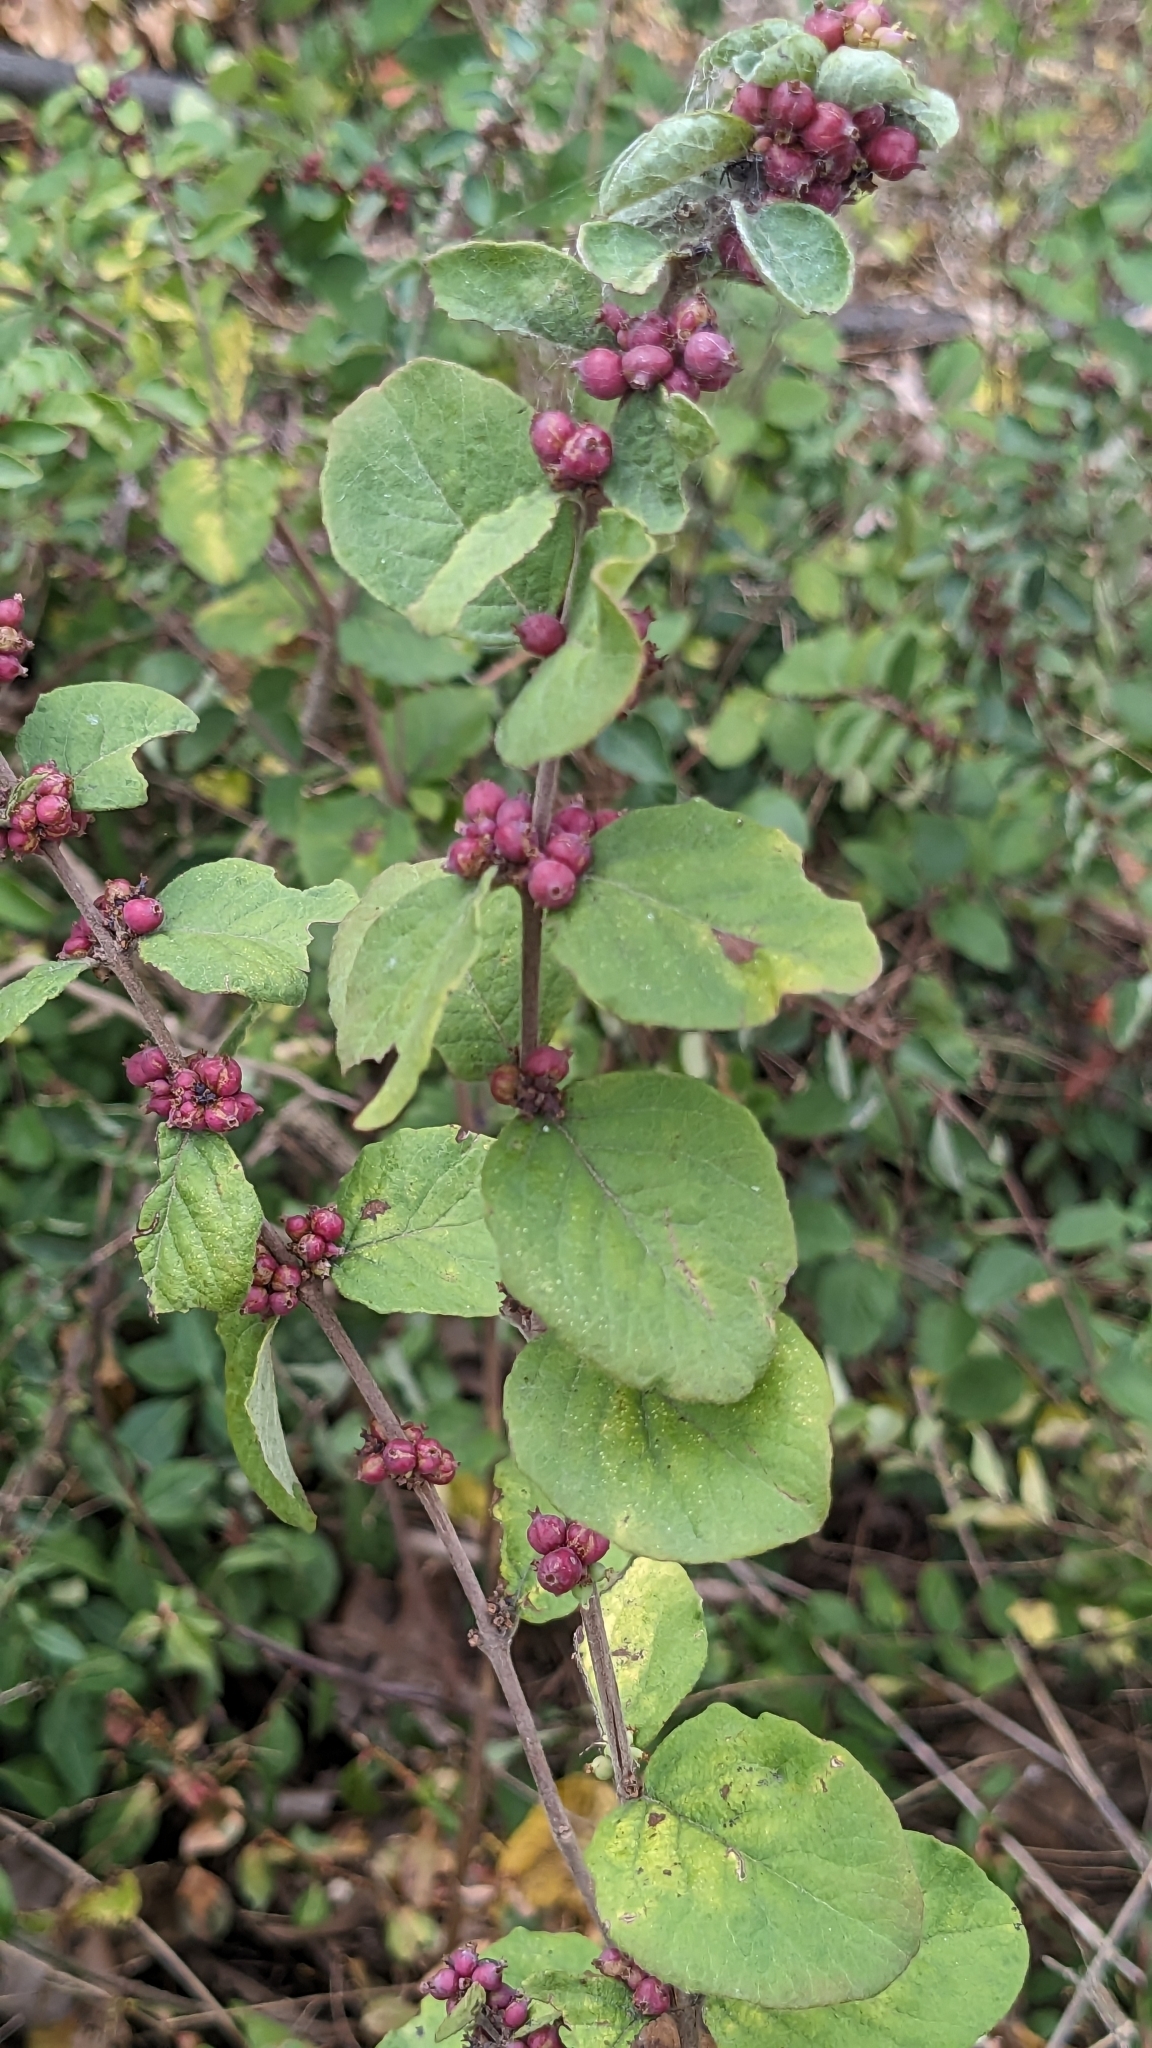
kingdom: Plantae
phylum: Tracheophyta
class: Magnoliopsida
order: Dipsacales
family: Caprifoliaceae
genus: Symphoricarpos
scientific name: Symphoricarpos orbiculatus
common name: Coralberry
